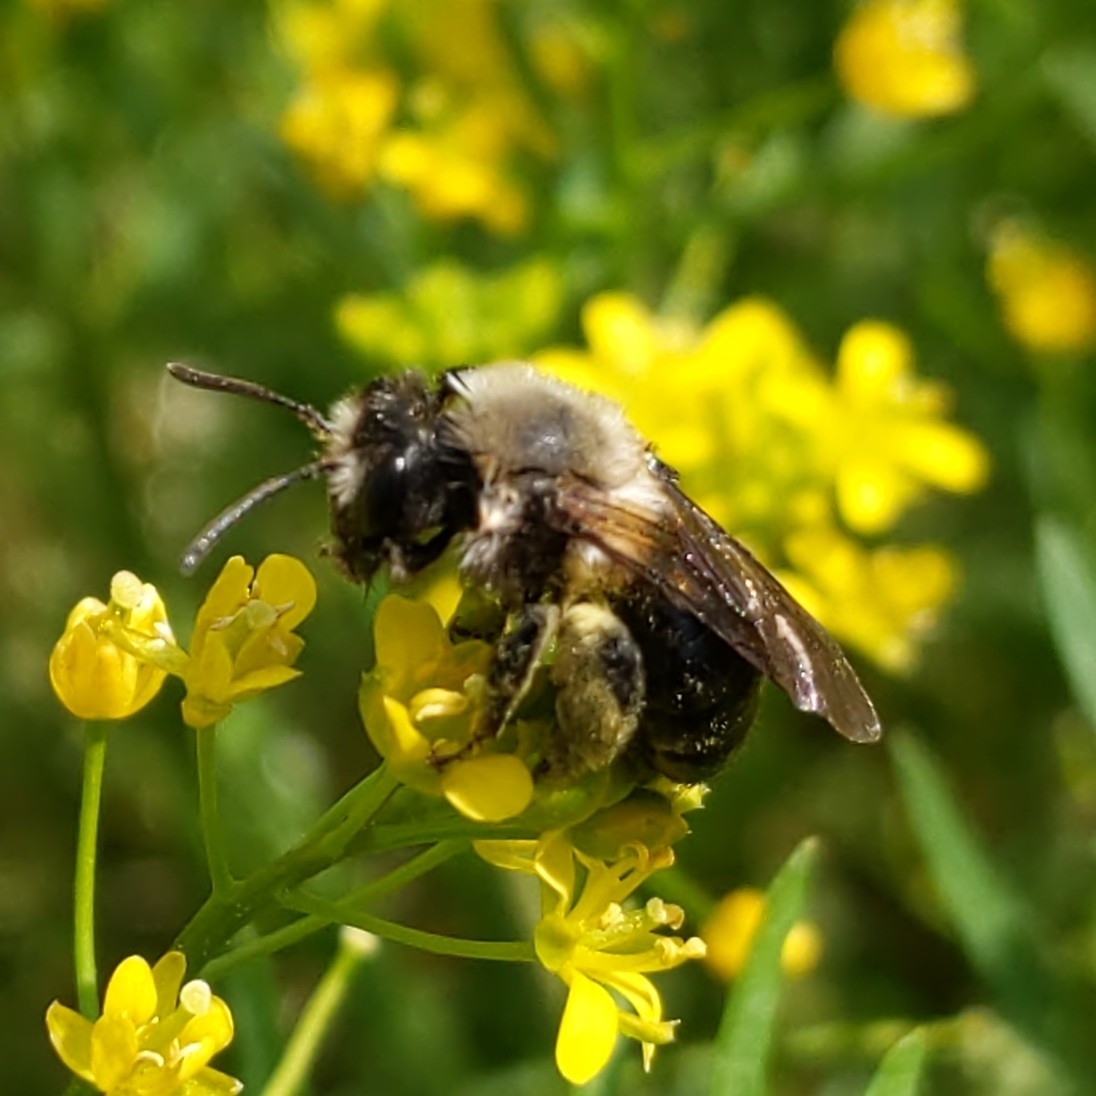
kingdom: Animalia
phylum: Arthropoda
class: Insecta
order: Hymenoptera
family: Andrenidae
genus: Andrena
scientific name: Andrena
